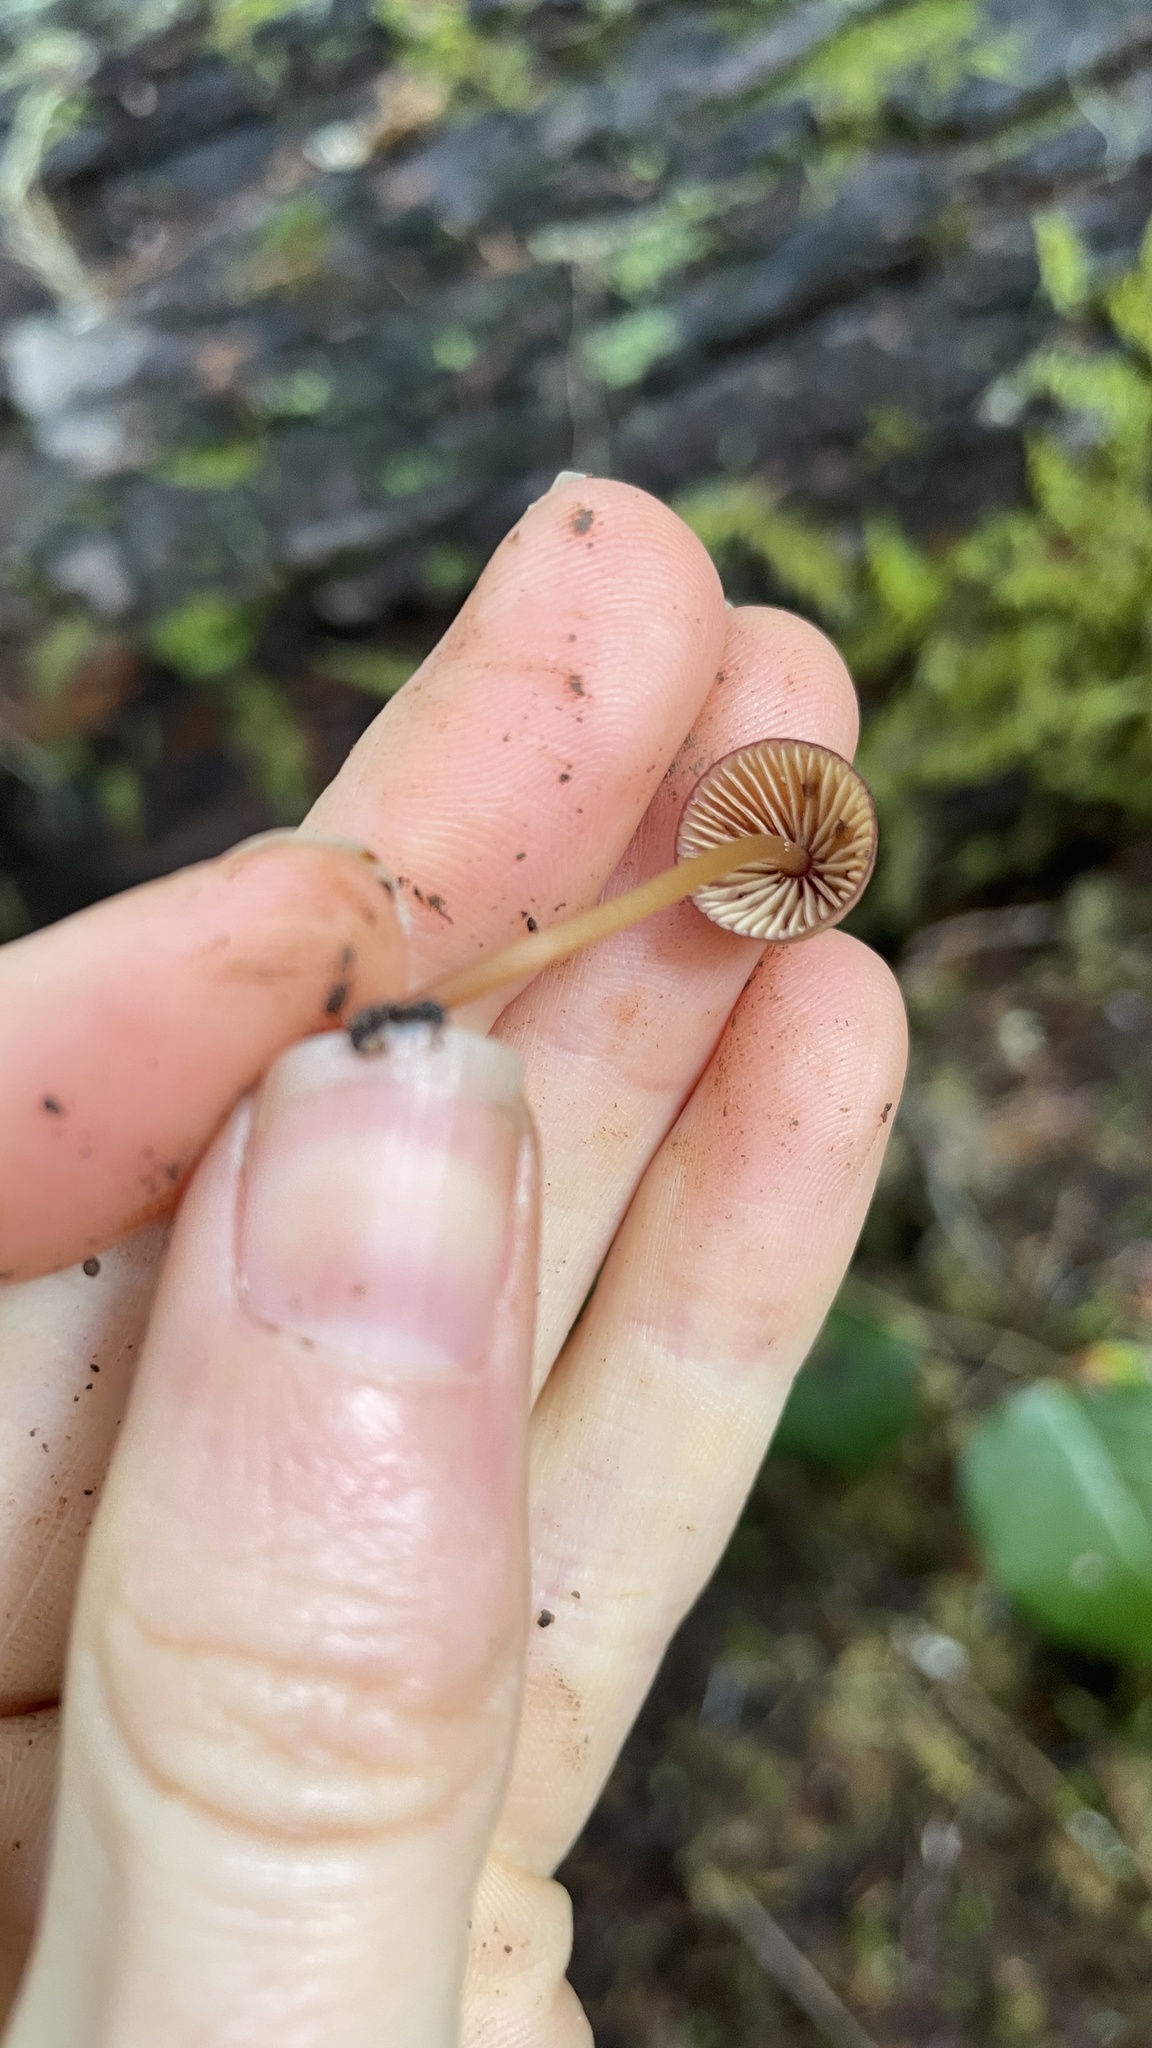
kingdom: Fungi
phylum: Basidiomycota
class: Agaricomycetes
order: Agaricales
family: Mycenaceae
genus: Mycena
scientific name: Mycena sanguinolenta
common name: Bleeding bonnet
